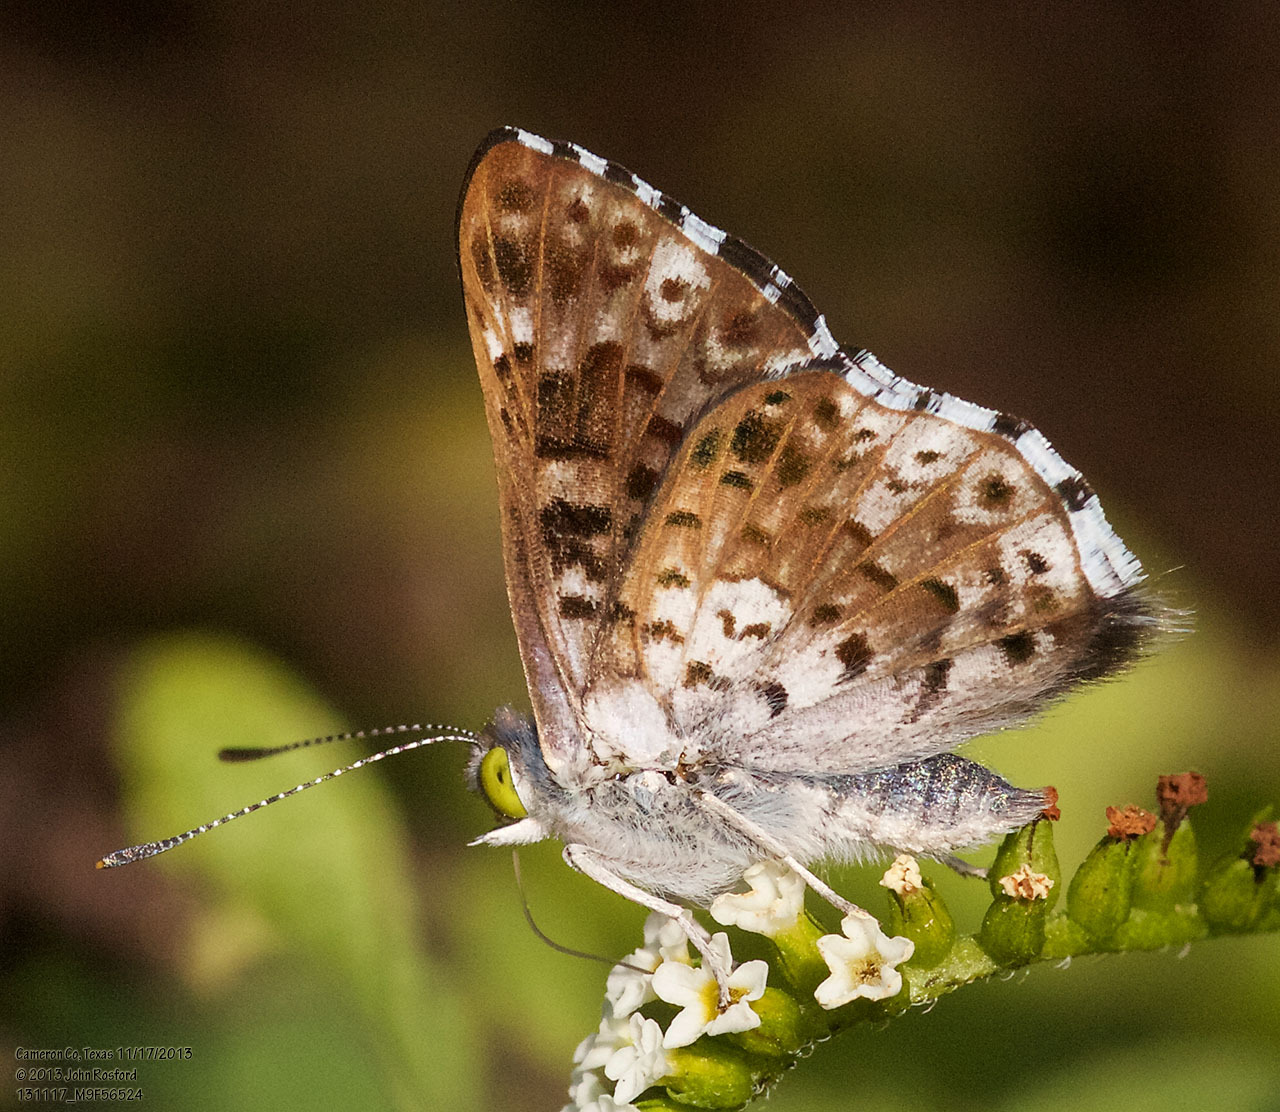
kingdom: Animalia
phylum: Arthropoda
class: Insecta
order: Lepidoptera
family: Riodinidae
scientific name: Riodinidae
